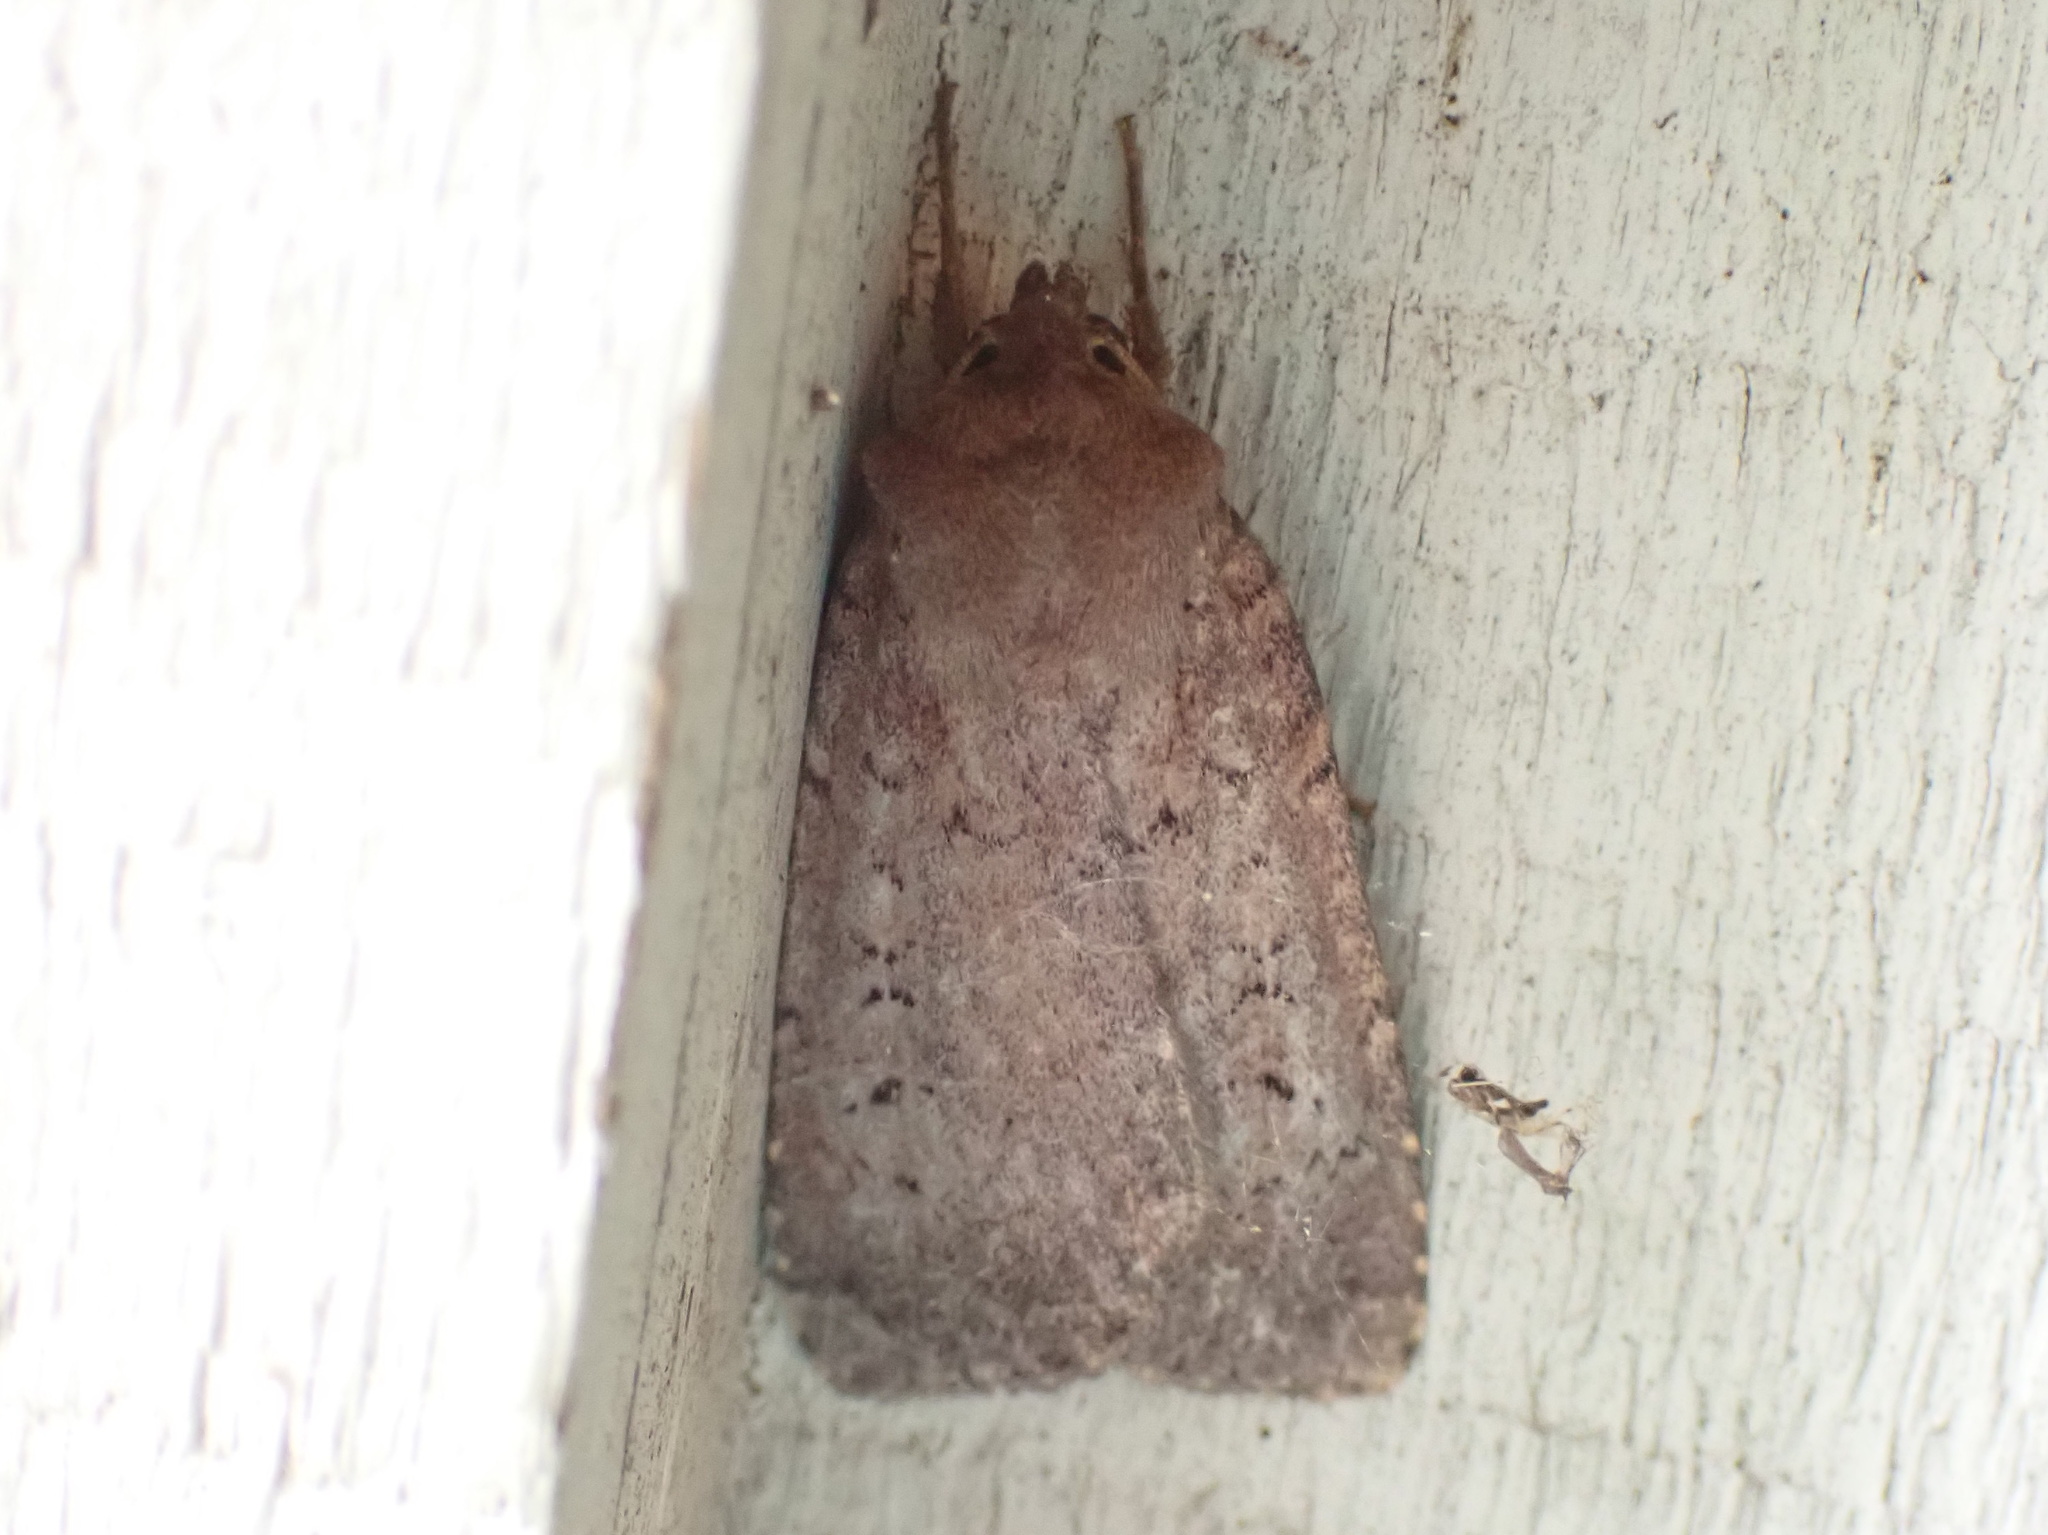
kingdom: Animalia
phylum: Arthropoda
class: Insecta
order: Lepidoptera
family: Noctuidae
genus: Graphiphora
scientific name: Graphiphora augur
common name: Double dart
